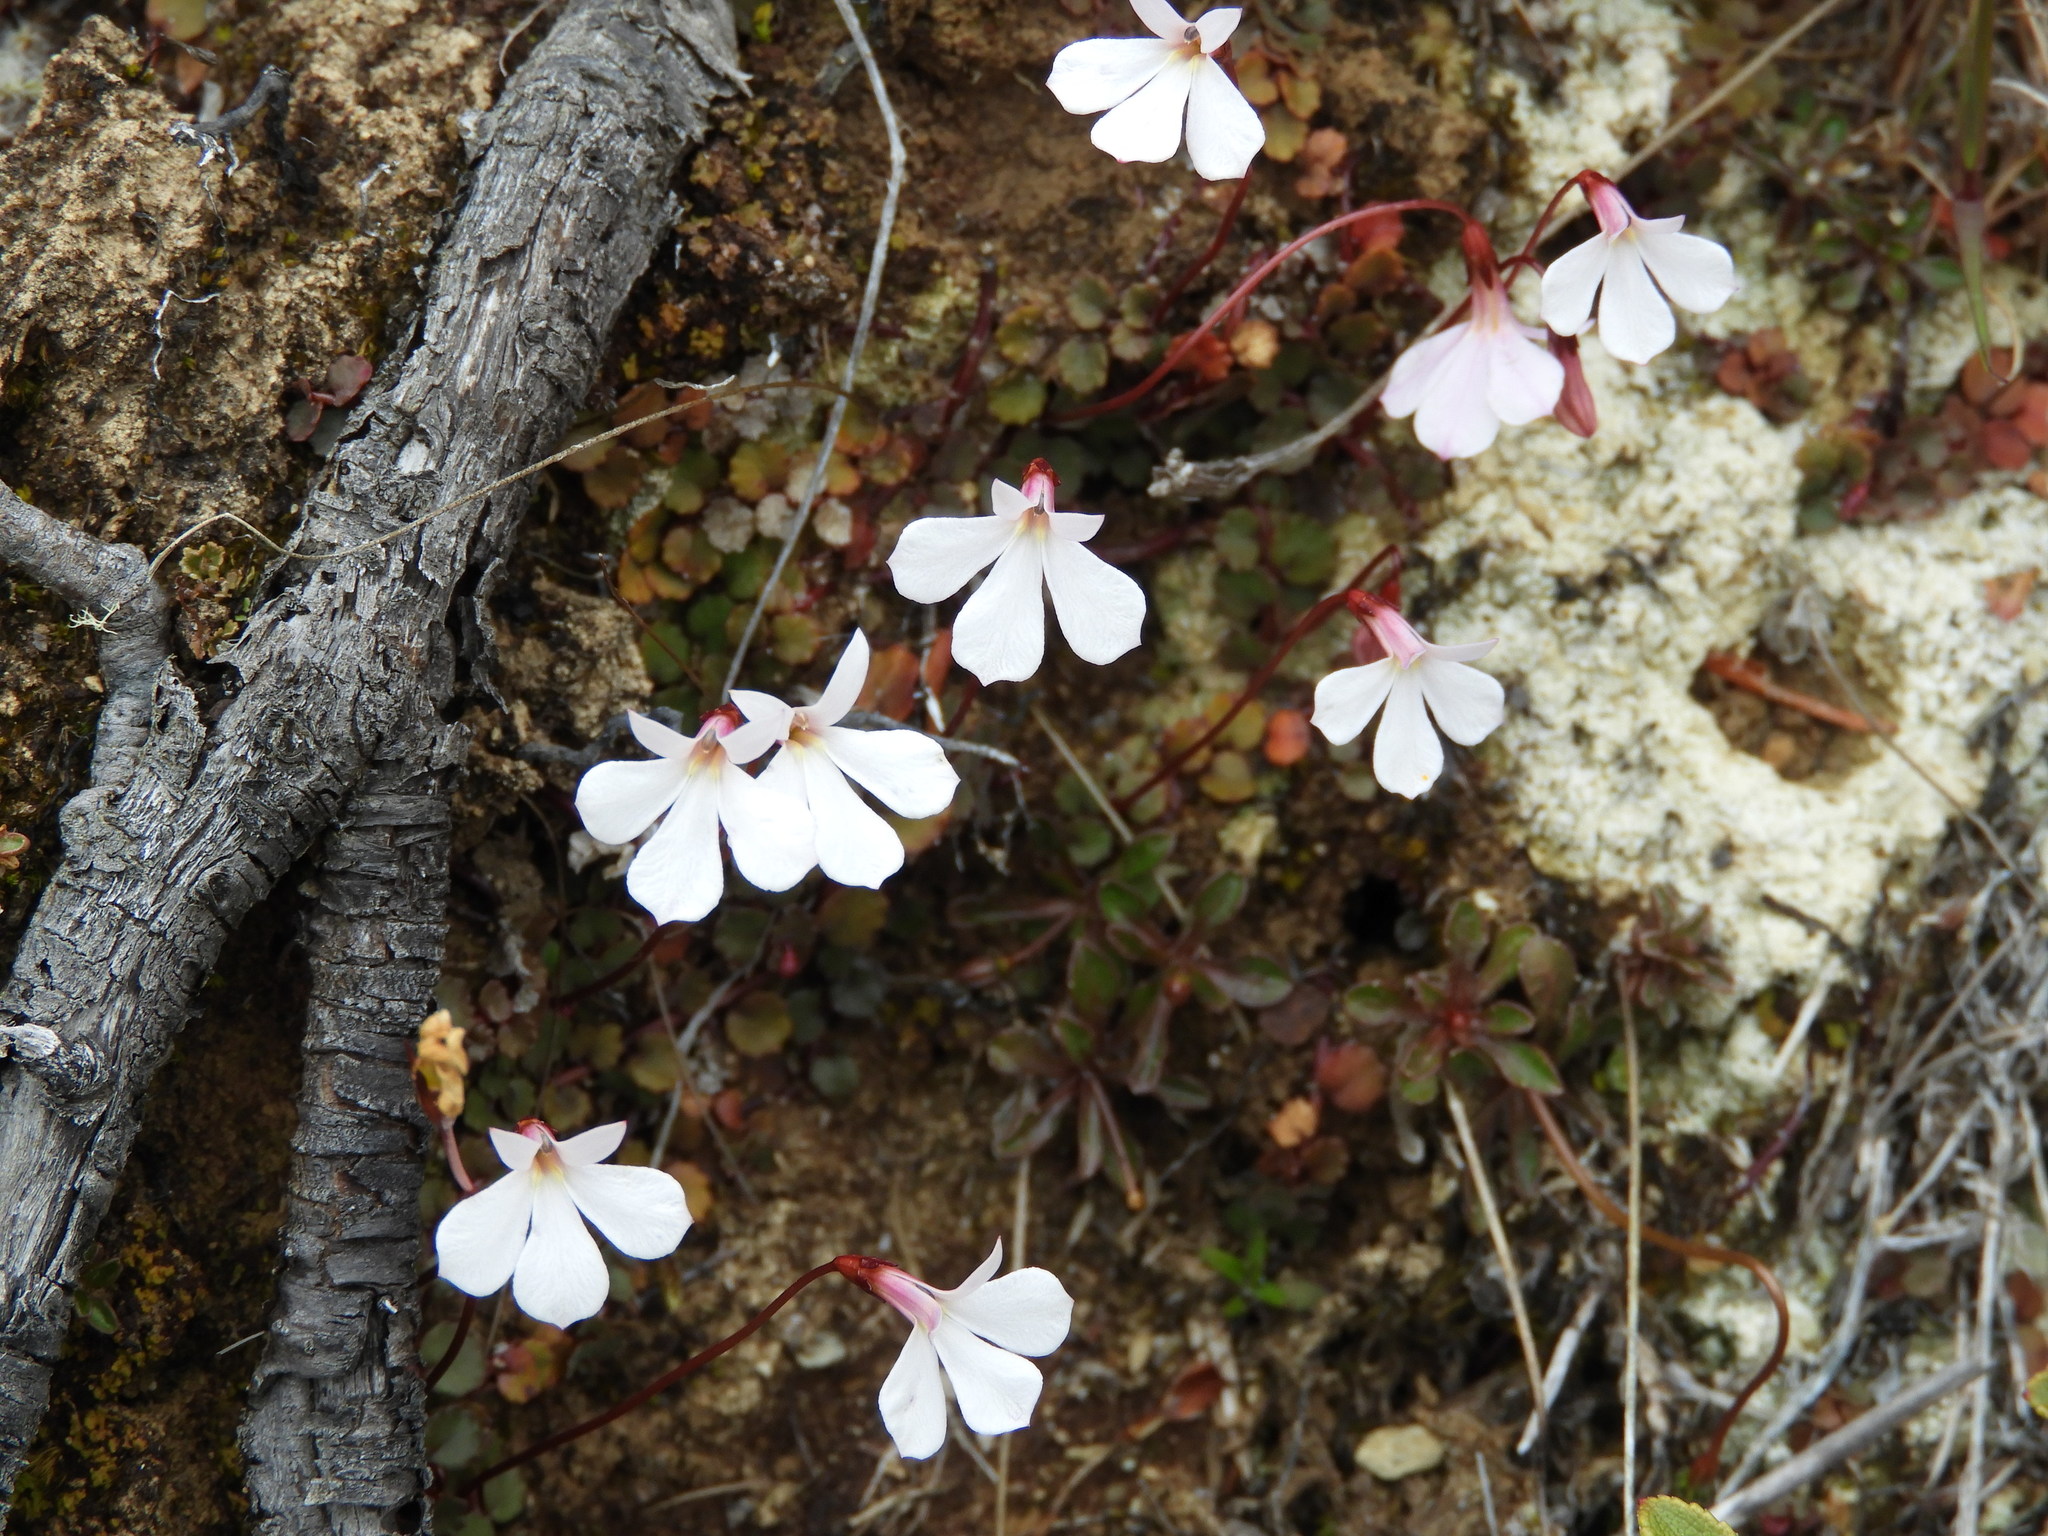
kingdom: Plantae
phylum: Tracheophyta
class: Magnoliopsida
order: Asterales
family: Campanulaceae
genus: Lobelia
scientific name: Lobelia angulata
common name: Lawn lobelia
